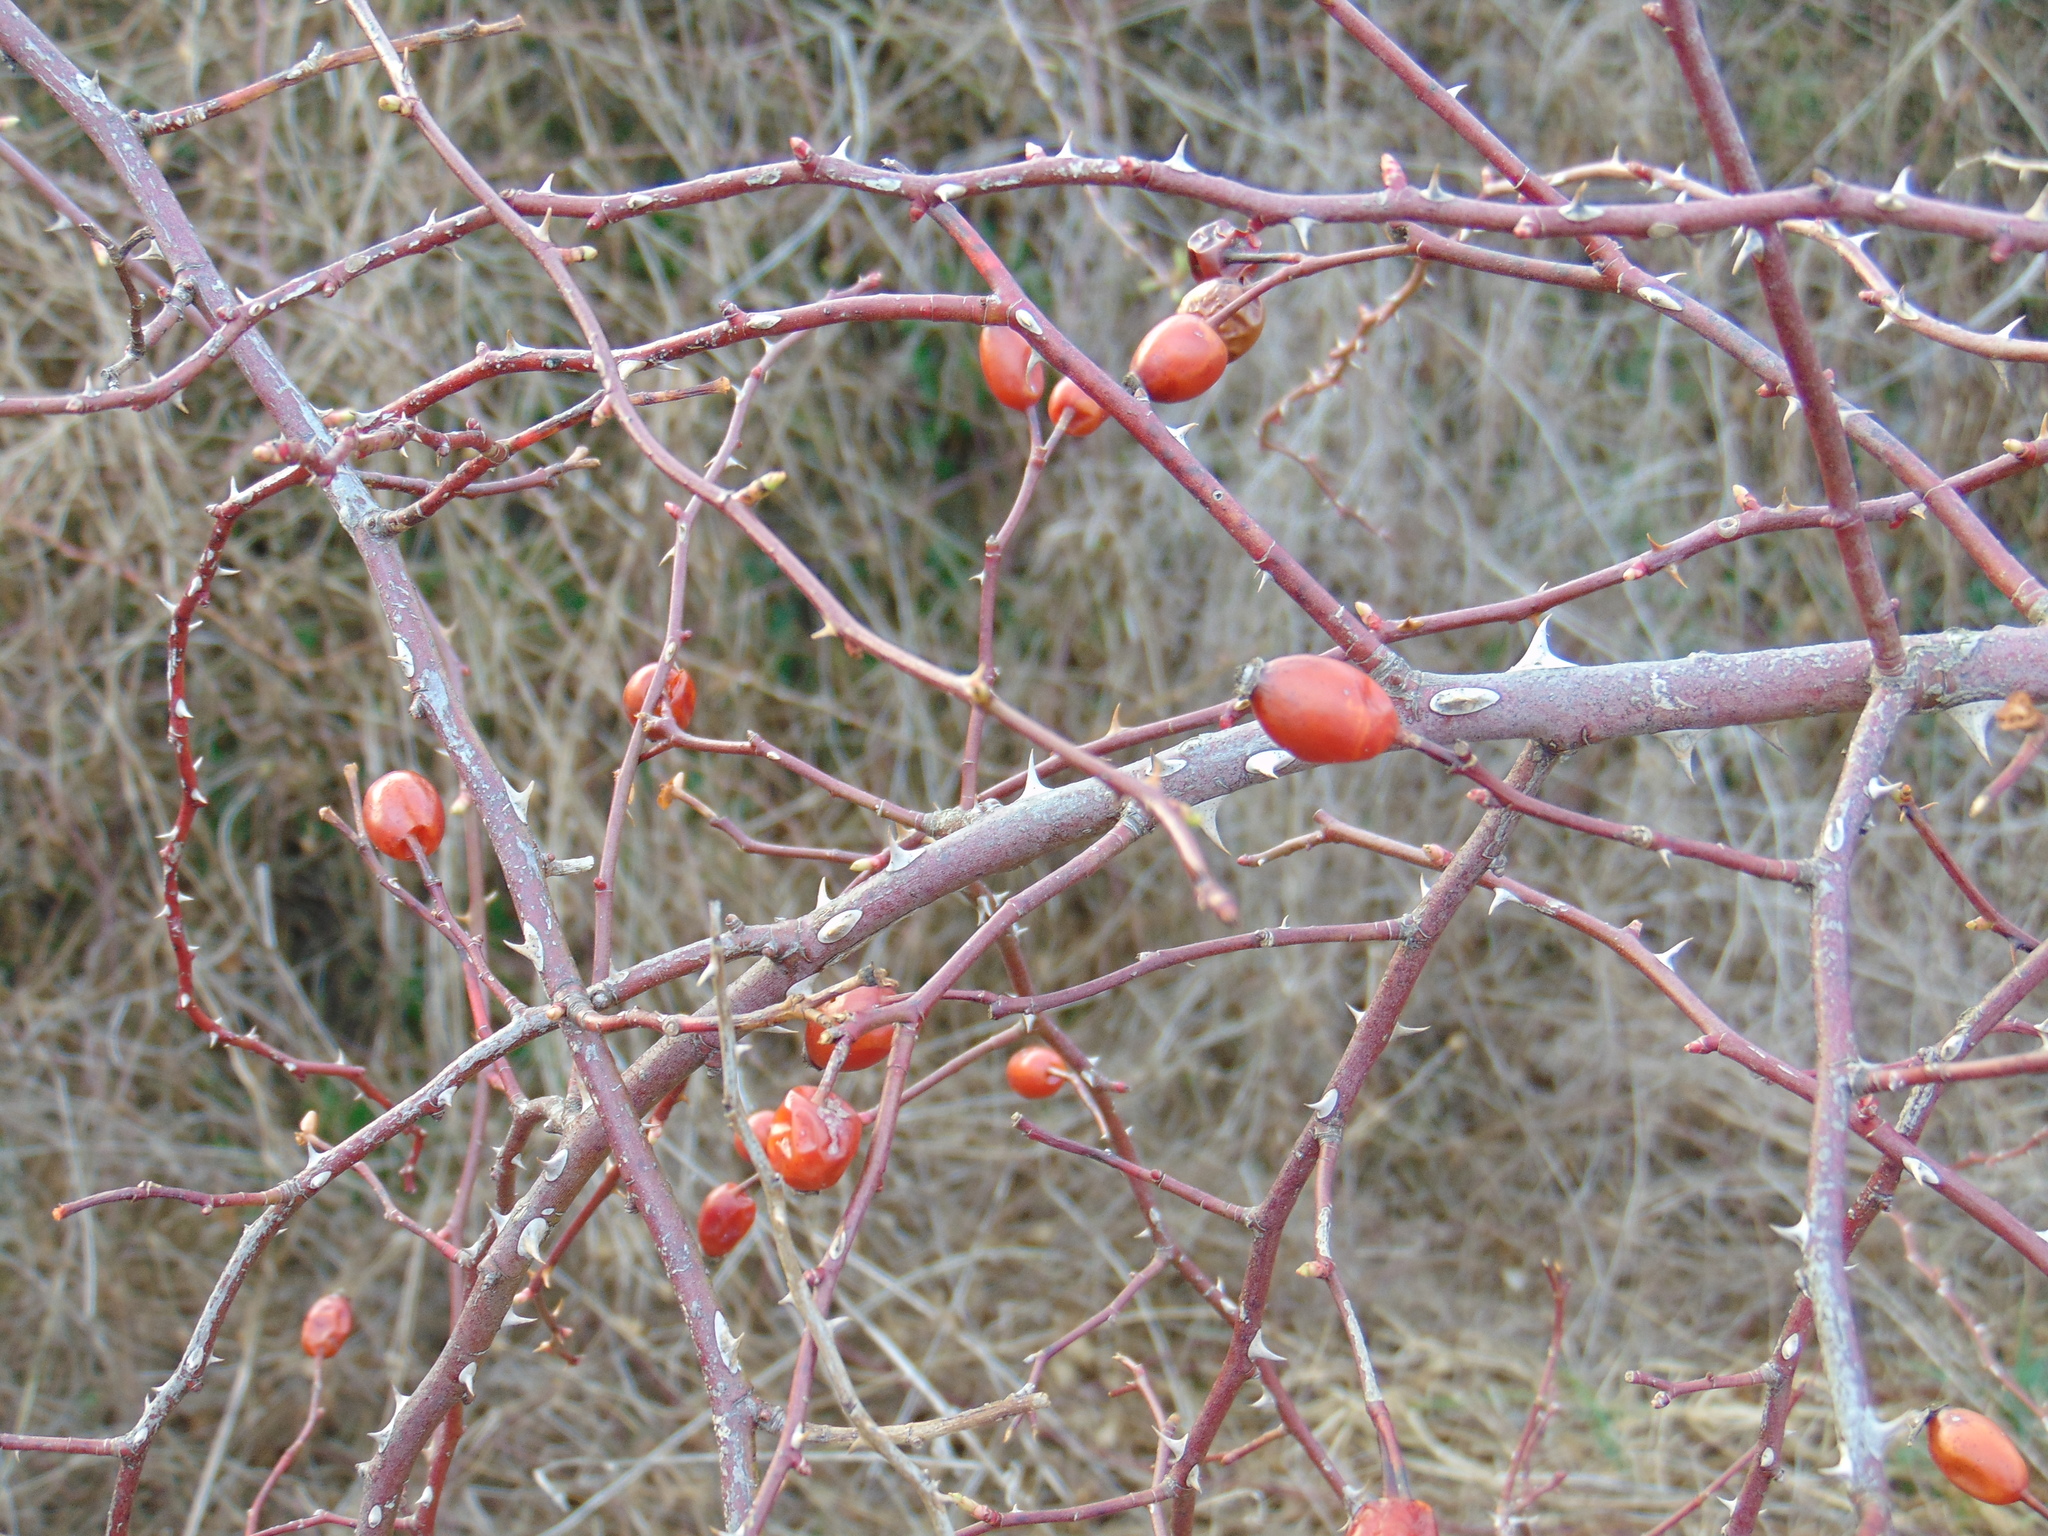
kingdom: Plantae
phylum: Tracheophyta
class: Magnoliopsida
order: Rosales
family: Rosaceae
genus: Rosa
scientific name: Rosa canina
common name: Dog rose
